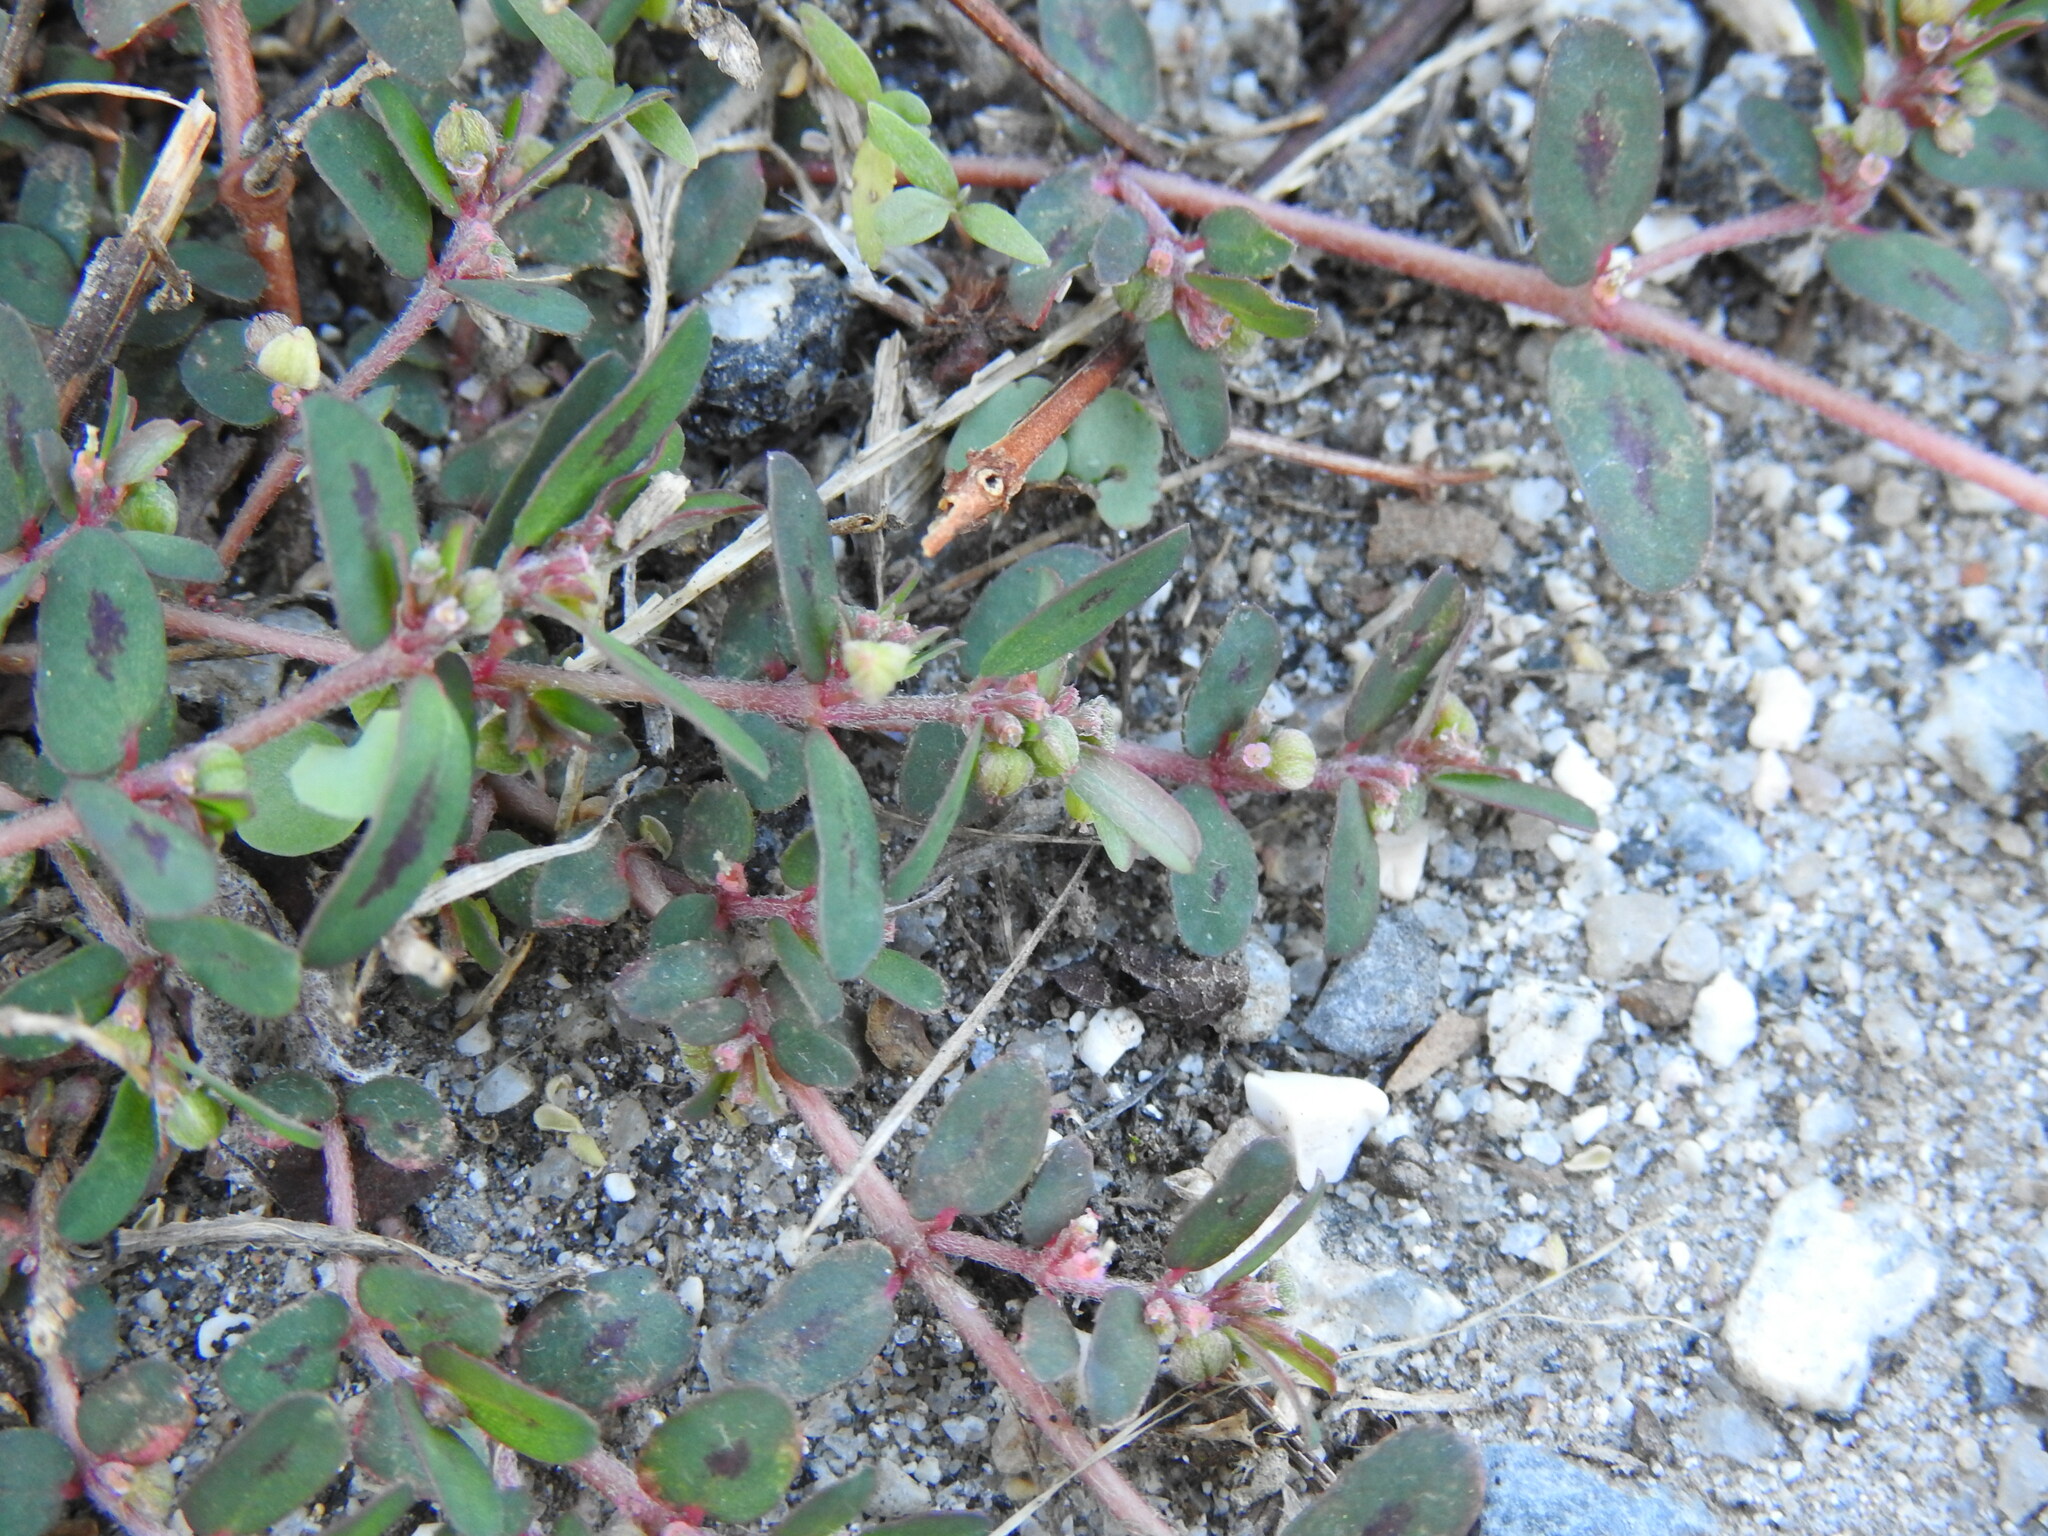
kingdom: Plantae
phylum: Tracheophyta
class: Magnoliopsida
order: Malpighiales
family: Euphorbiaceae
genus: Euphorbia
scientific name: Euphorbia maculata
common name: Spotted spurge
